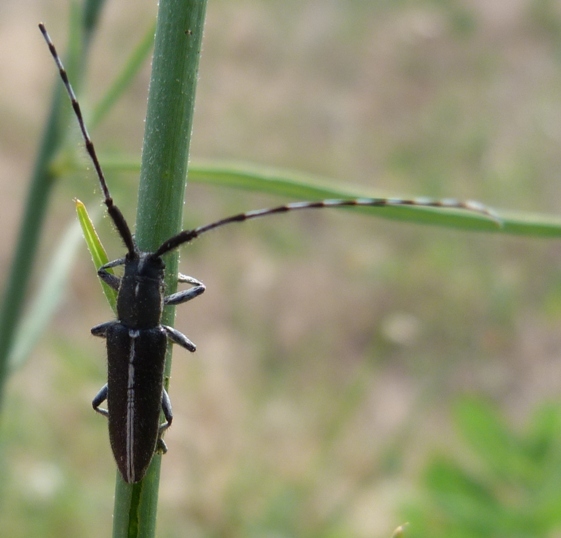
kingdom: Animalia
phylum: Arthropoda
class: Insecta
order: Coleoptera
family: Cerambycidae
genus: Agapanthia
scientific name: Agapanthia suturalis
